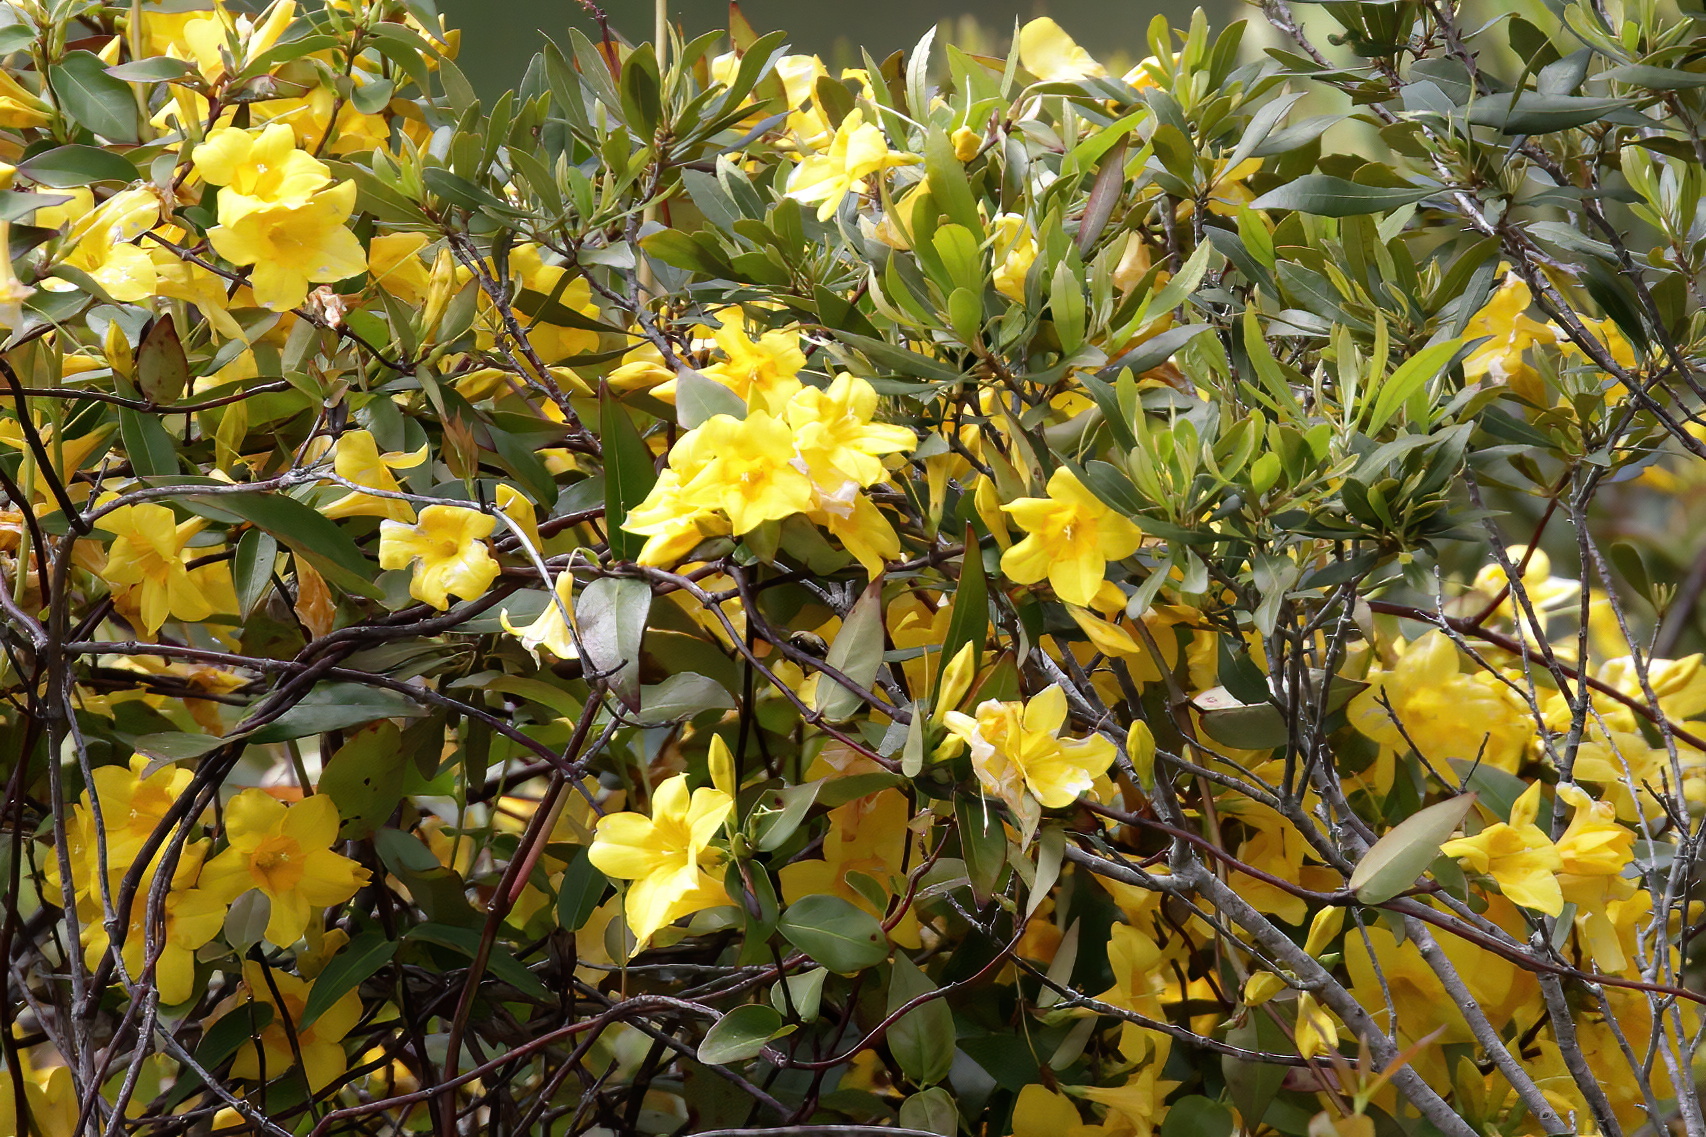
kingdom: Plantae
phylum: Tracheophyta
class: Magnoliopsida
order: Gentianales
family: Gelsemiaceae
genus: Gelsemium
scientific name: Gelsemium rankinii
